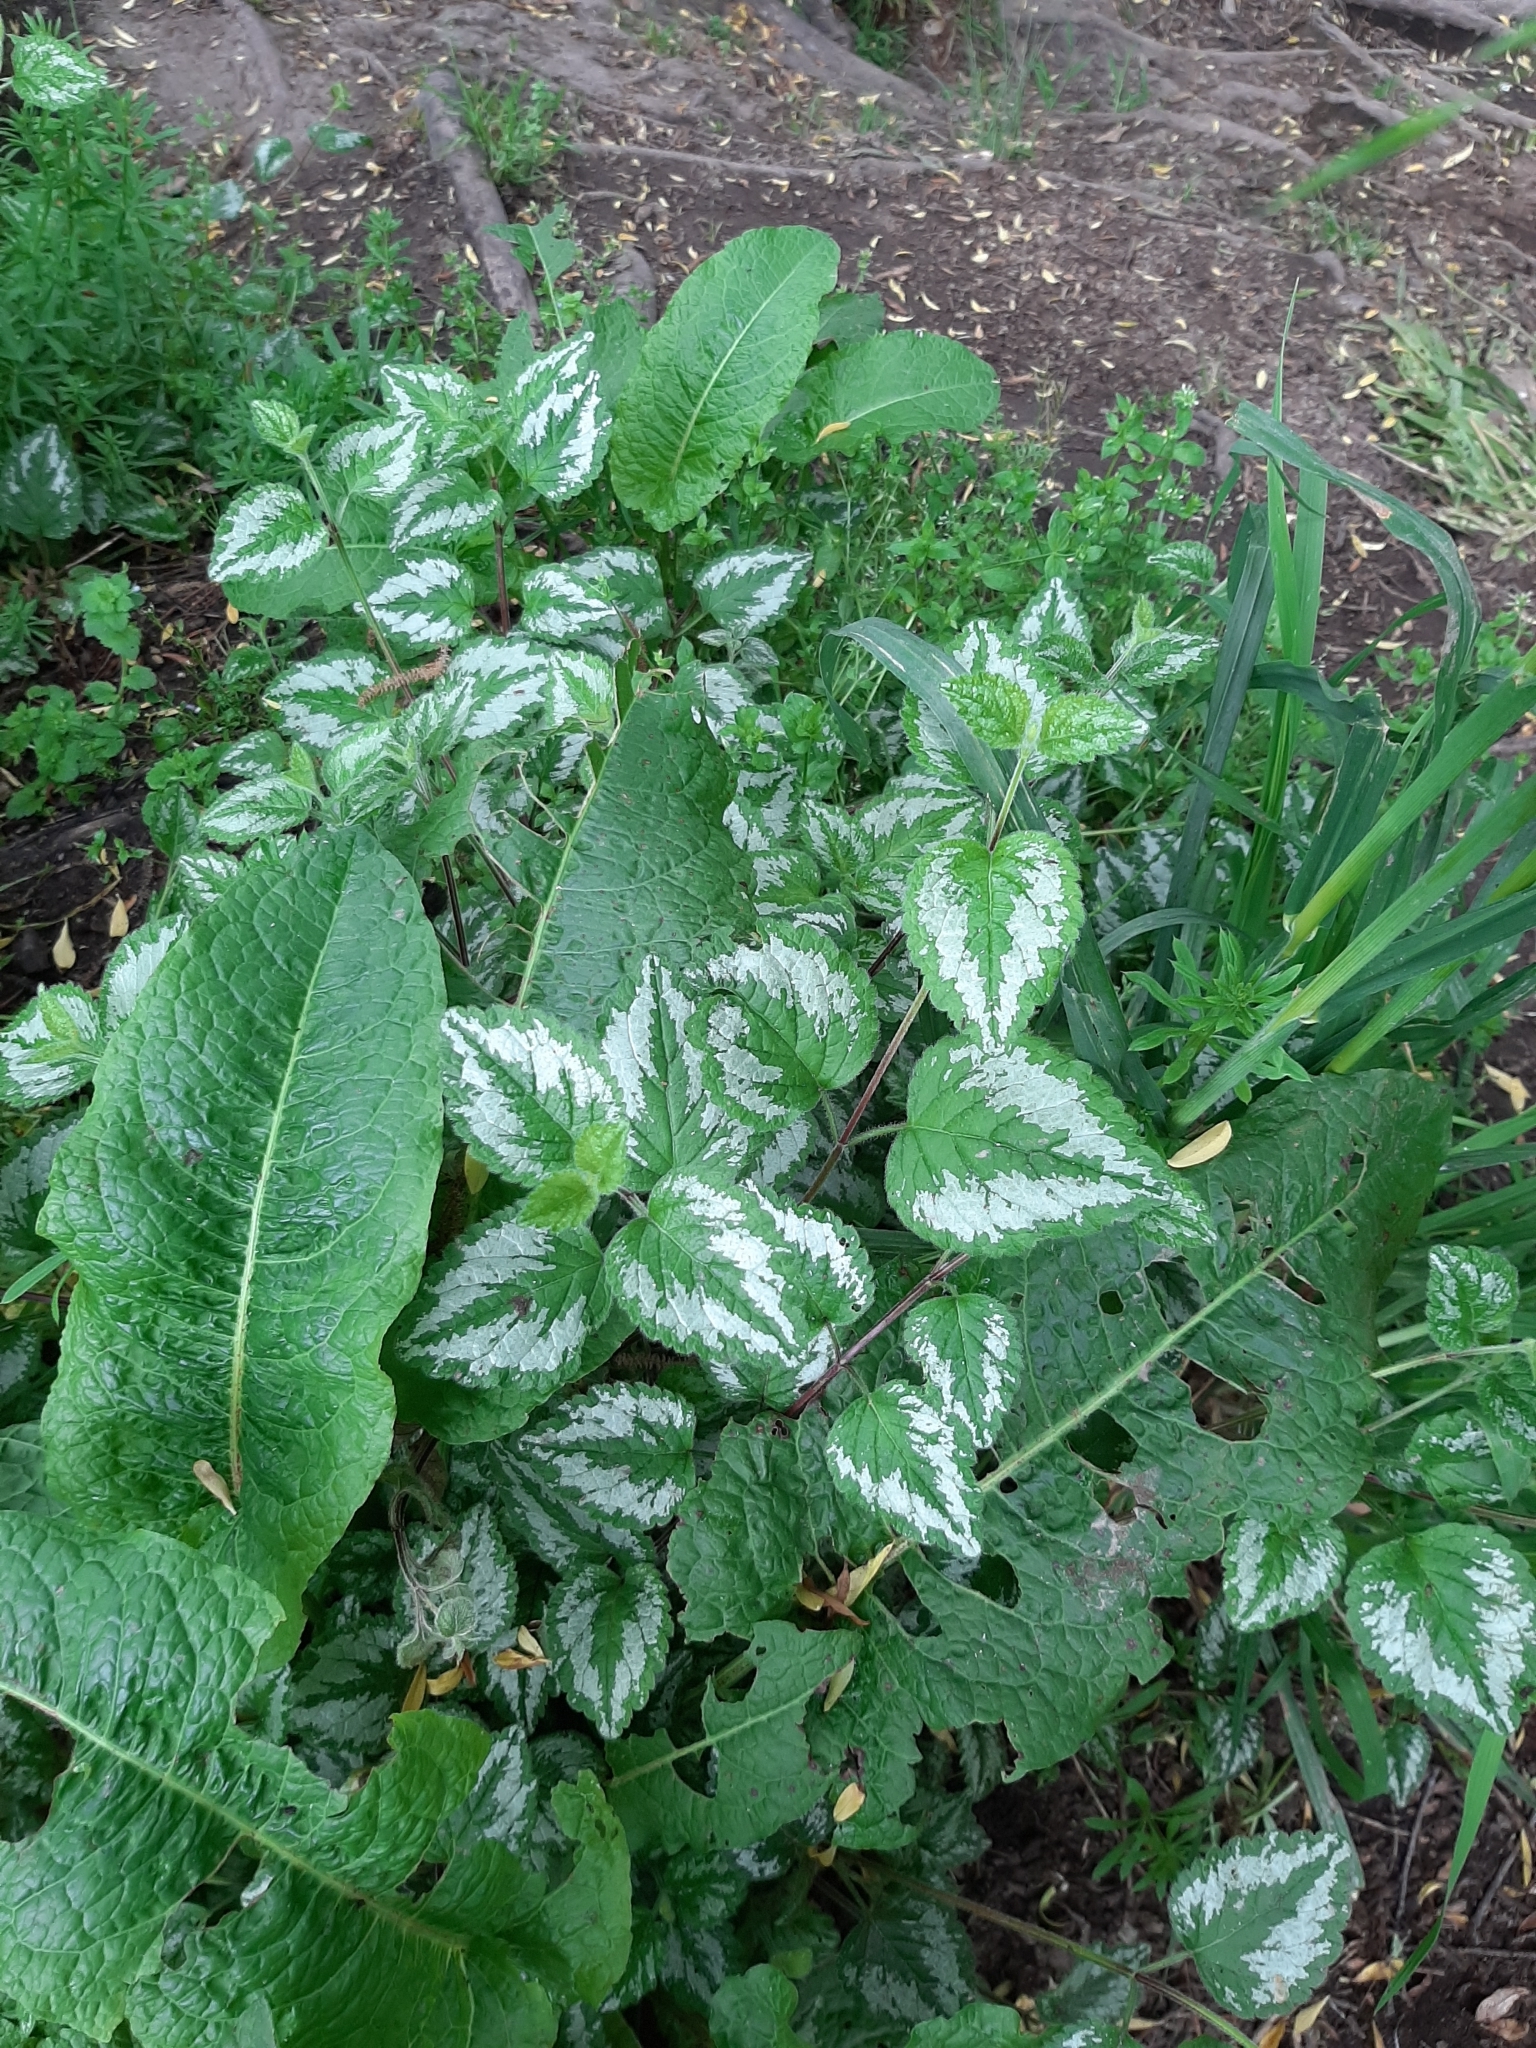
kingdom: Plantae
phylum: Tracheophyta
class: Magnoliopsida
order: Lamiales
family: Lamiaceae
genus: Lamium
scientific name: Lamium galeobdolon
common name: Yellow archangel
